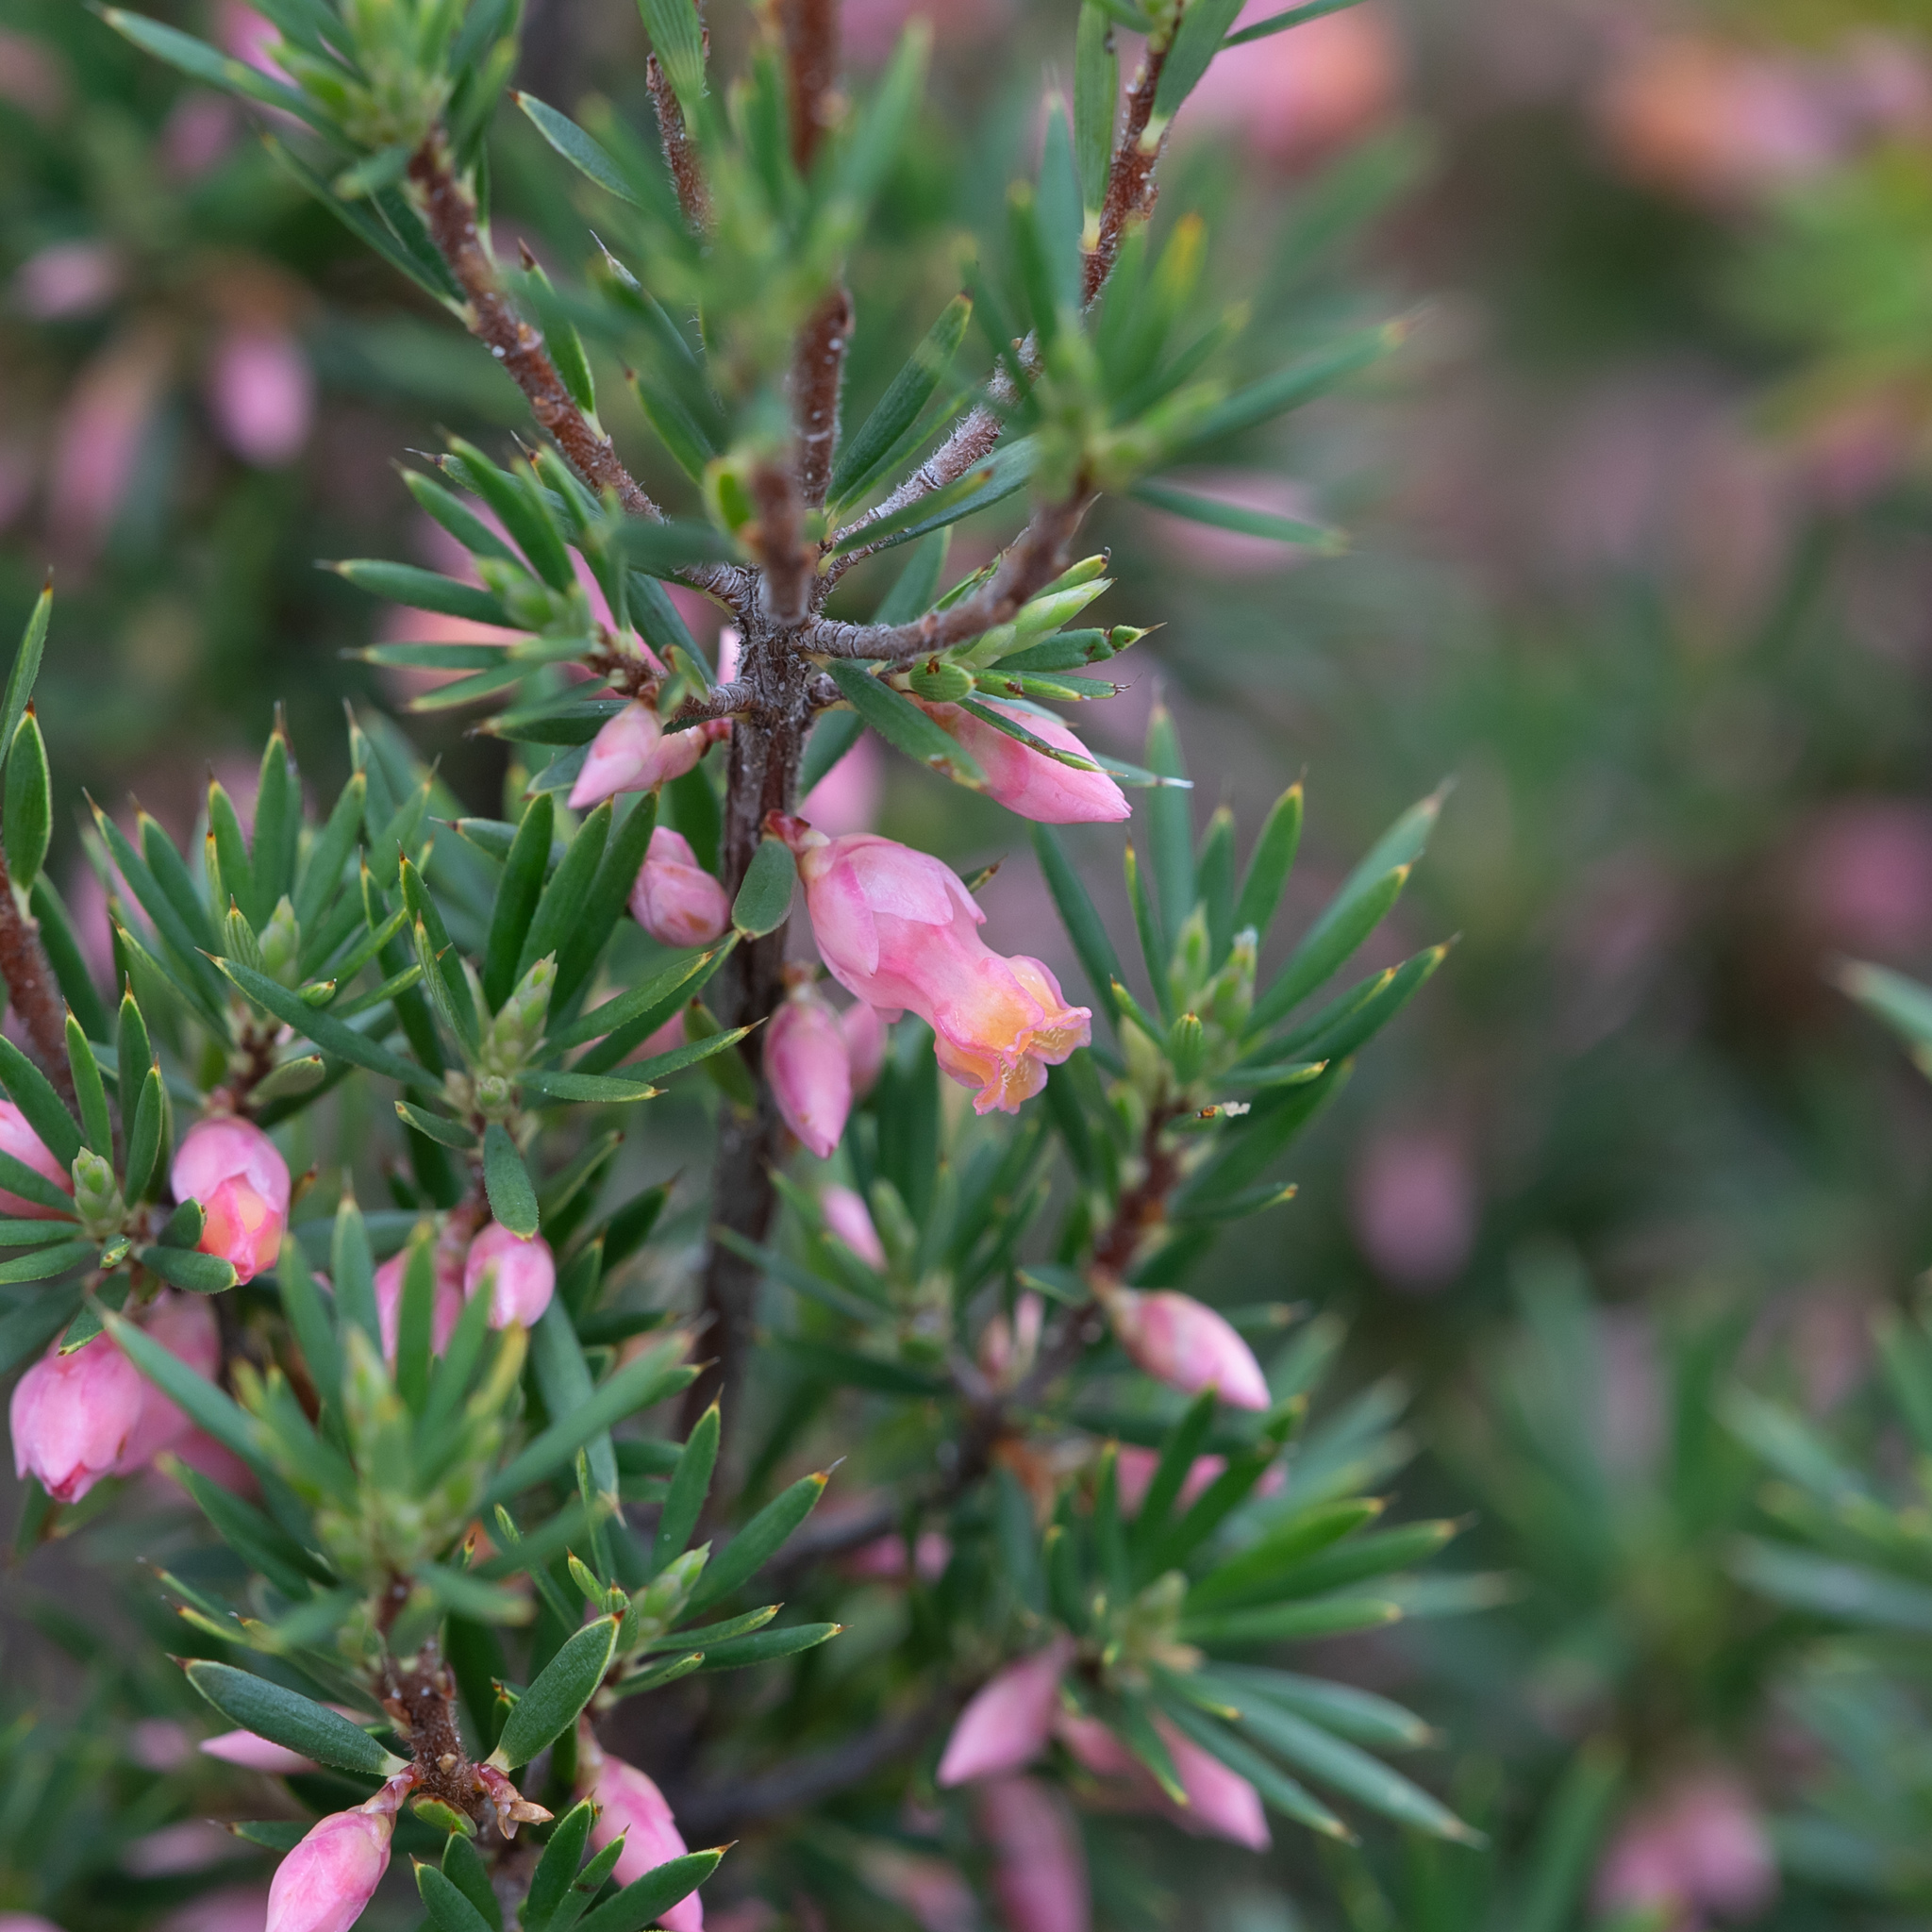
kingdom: Plantae
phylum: Tracheophyta
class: Magnoliopsida
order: Ericales
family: Ericaceae
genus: Brachyloma
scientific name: Brachyloma ericoides
